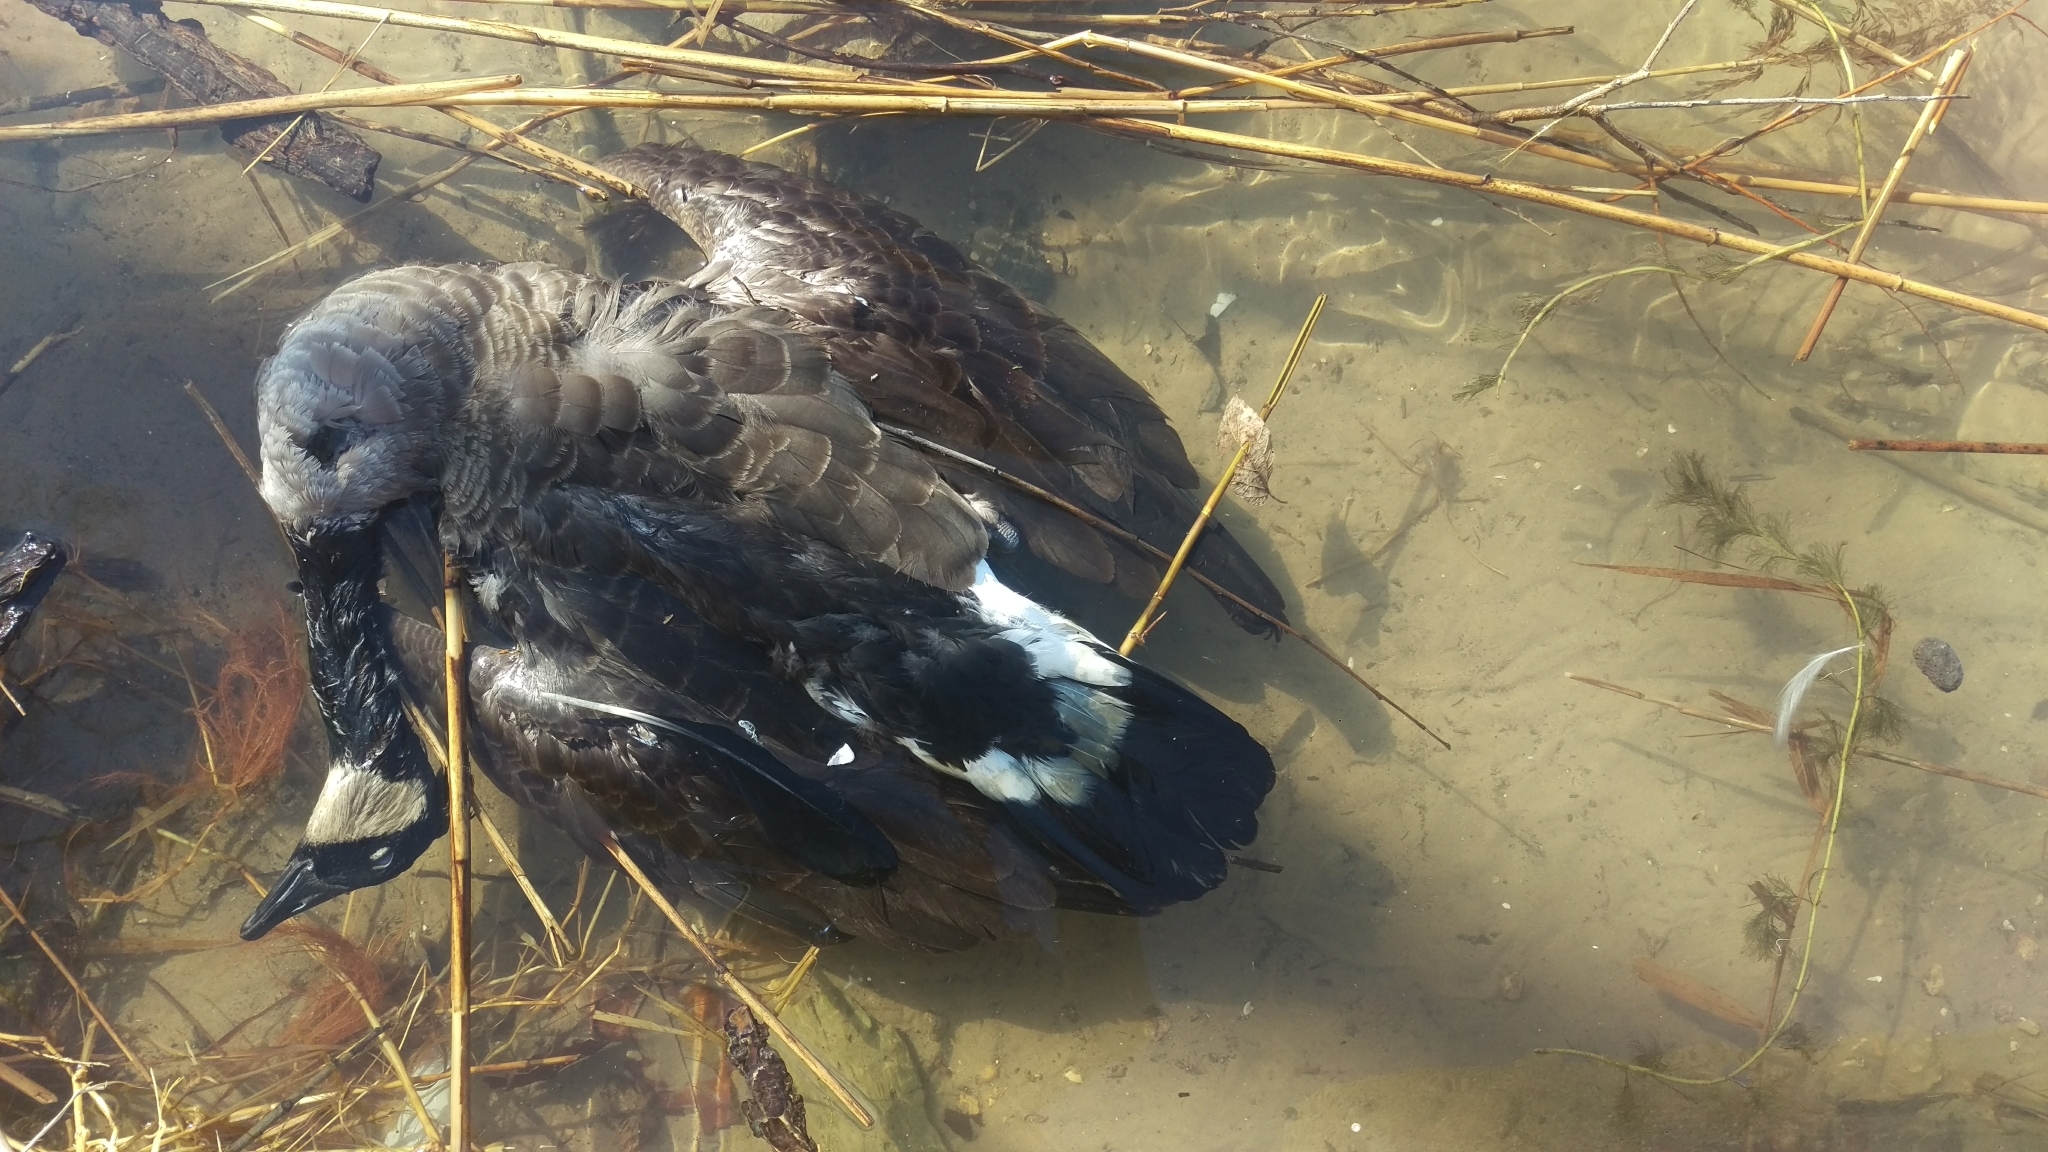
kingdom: Animalia
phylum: Chordata
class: Aves
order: Anseriformes
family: Anatidae
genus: Branta
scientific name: Branta canadensis
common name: Canada goose
